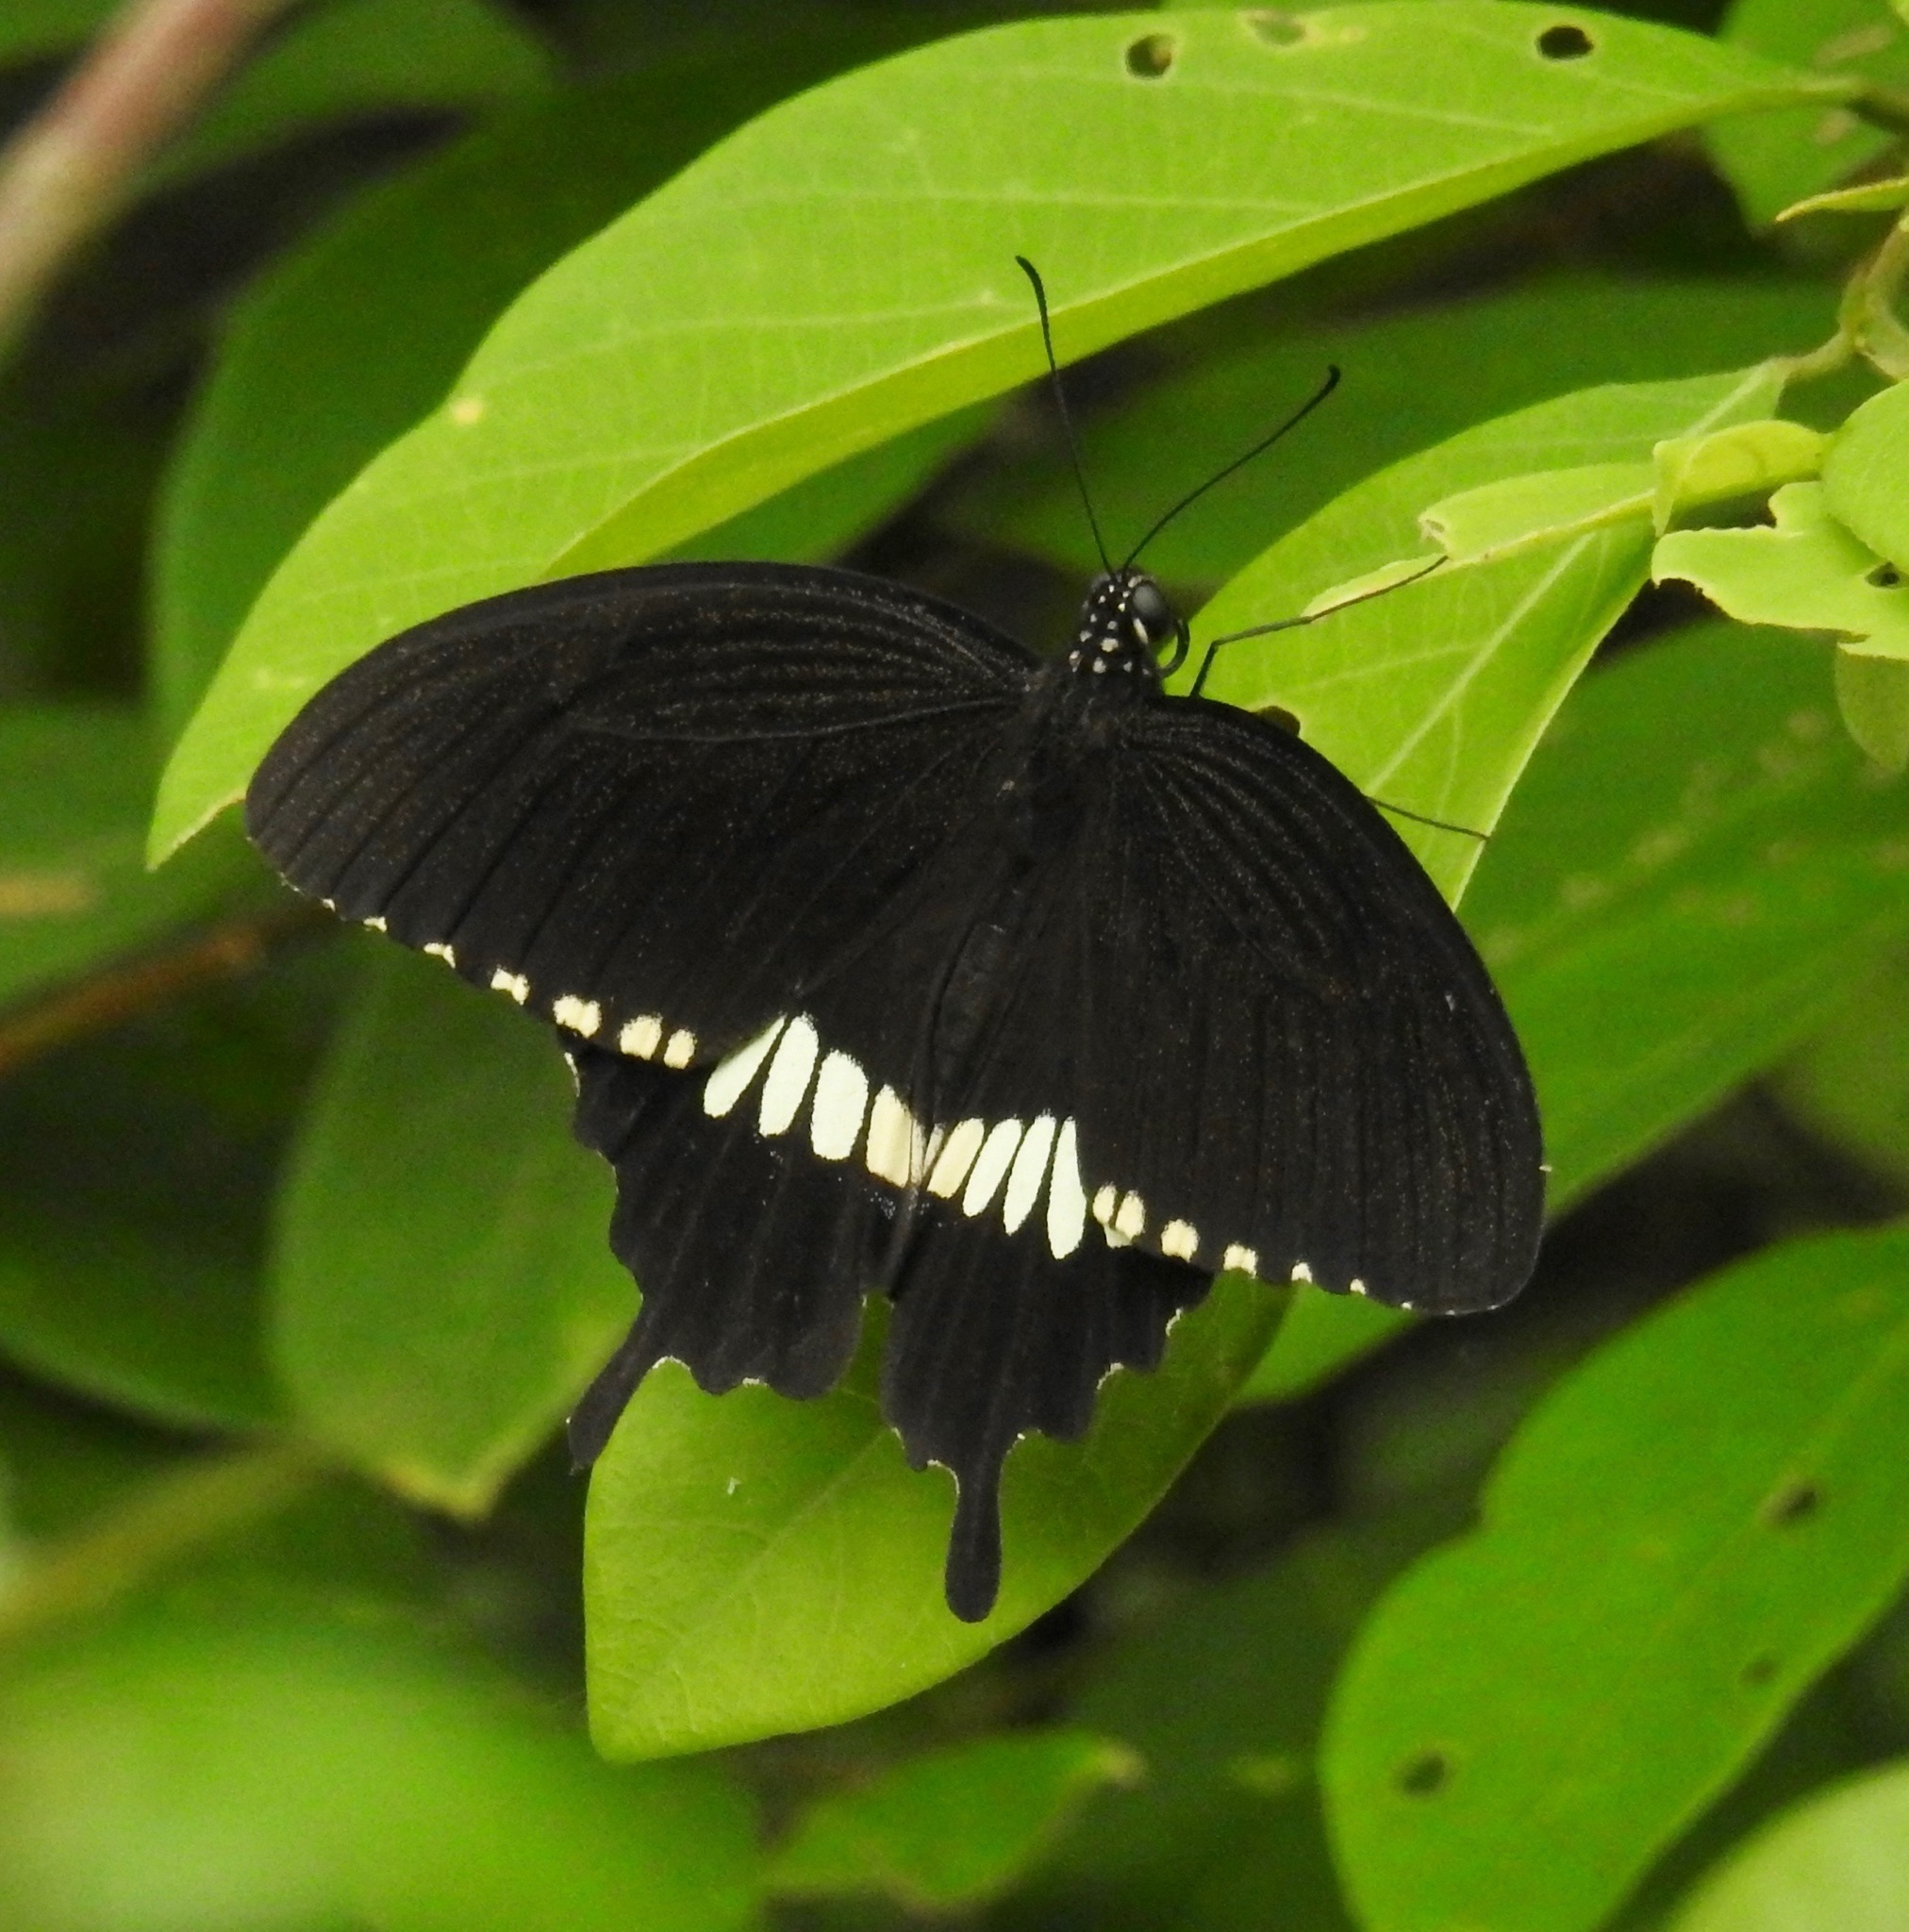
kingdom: Animalia
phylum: Arthropoda
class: Insecta
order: Lepidoptera
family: Papilionidae
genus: Papilio
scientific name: Papilio polytes
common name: Common mormon
